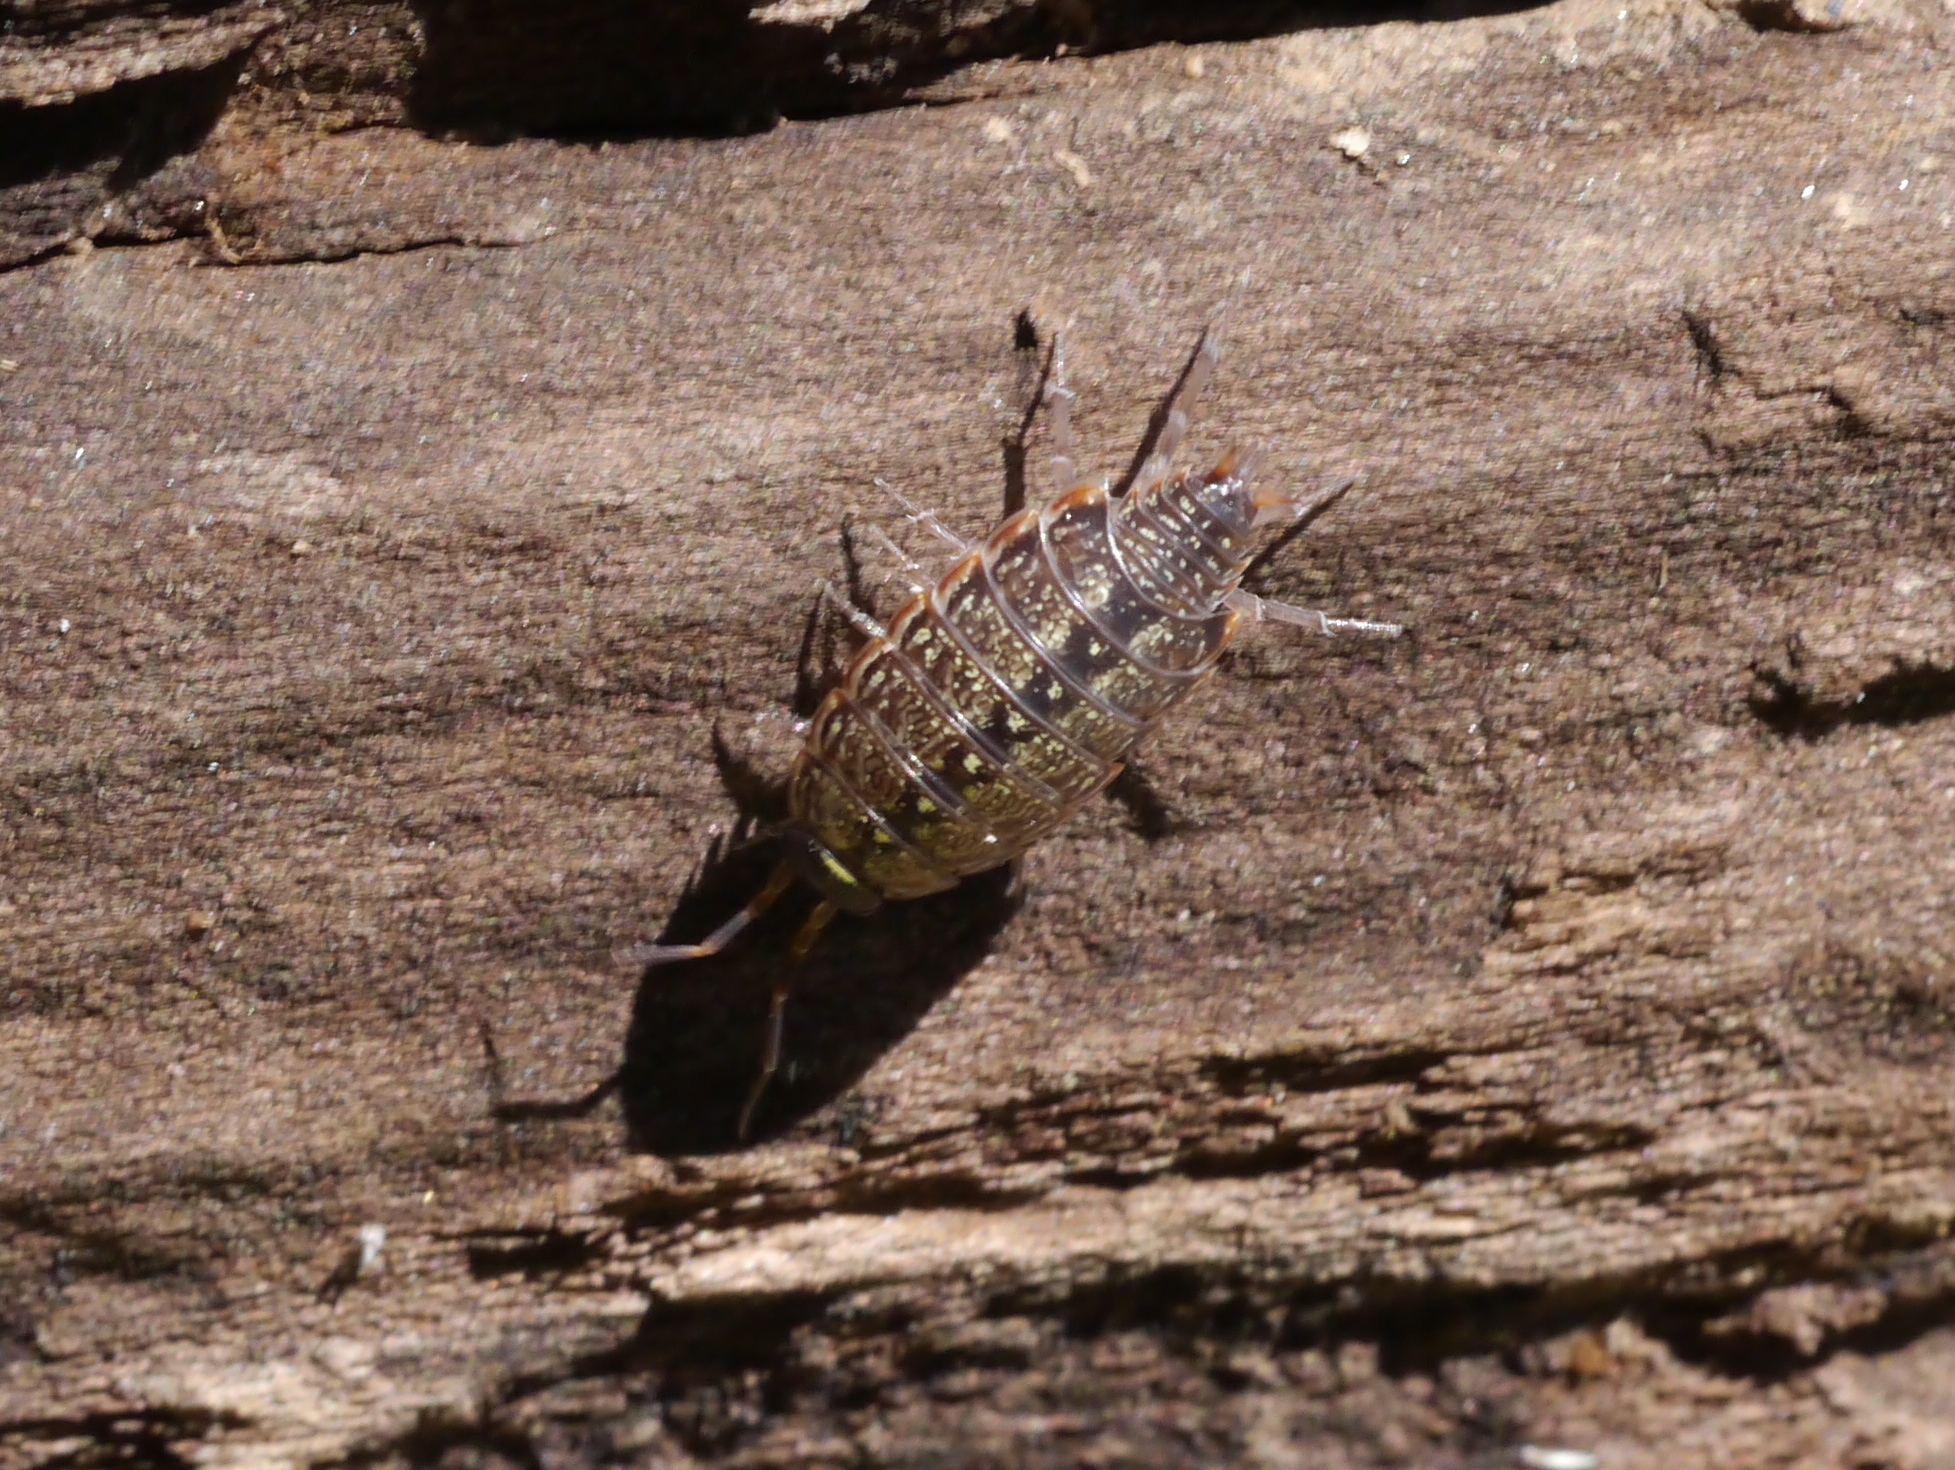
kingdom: Animalia
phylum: Arthropoda
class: Malacostraca
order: Isopoda
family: Philosciidae
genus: Philoscia
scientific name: Philoscia muscorum
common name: Common striped woodlouse
